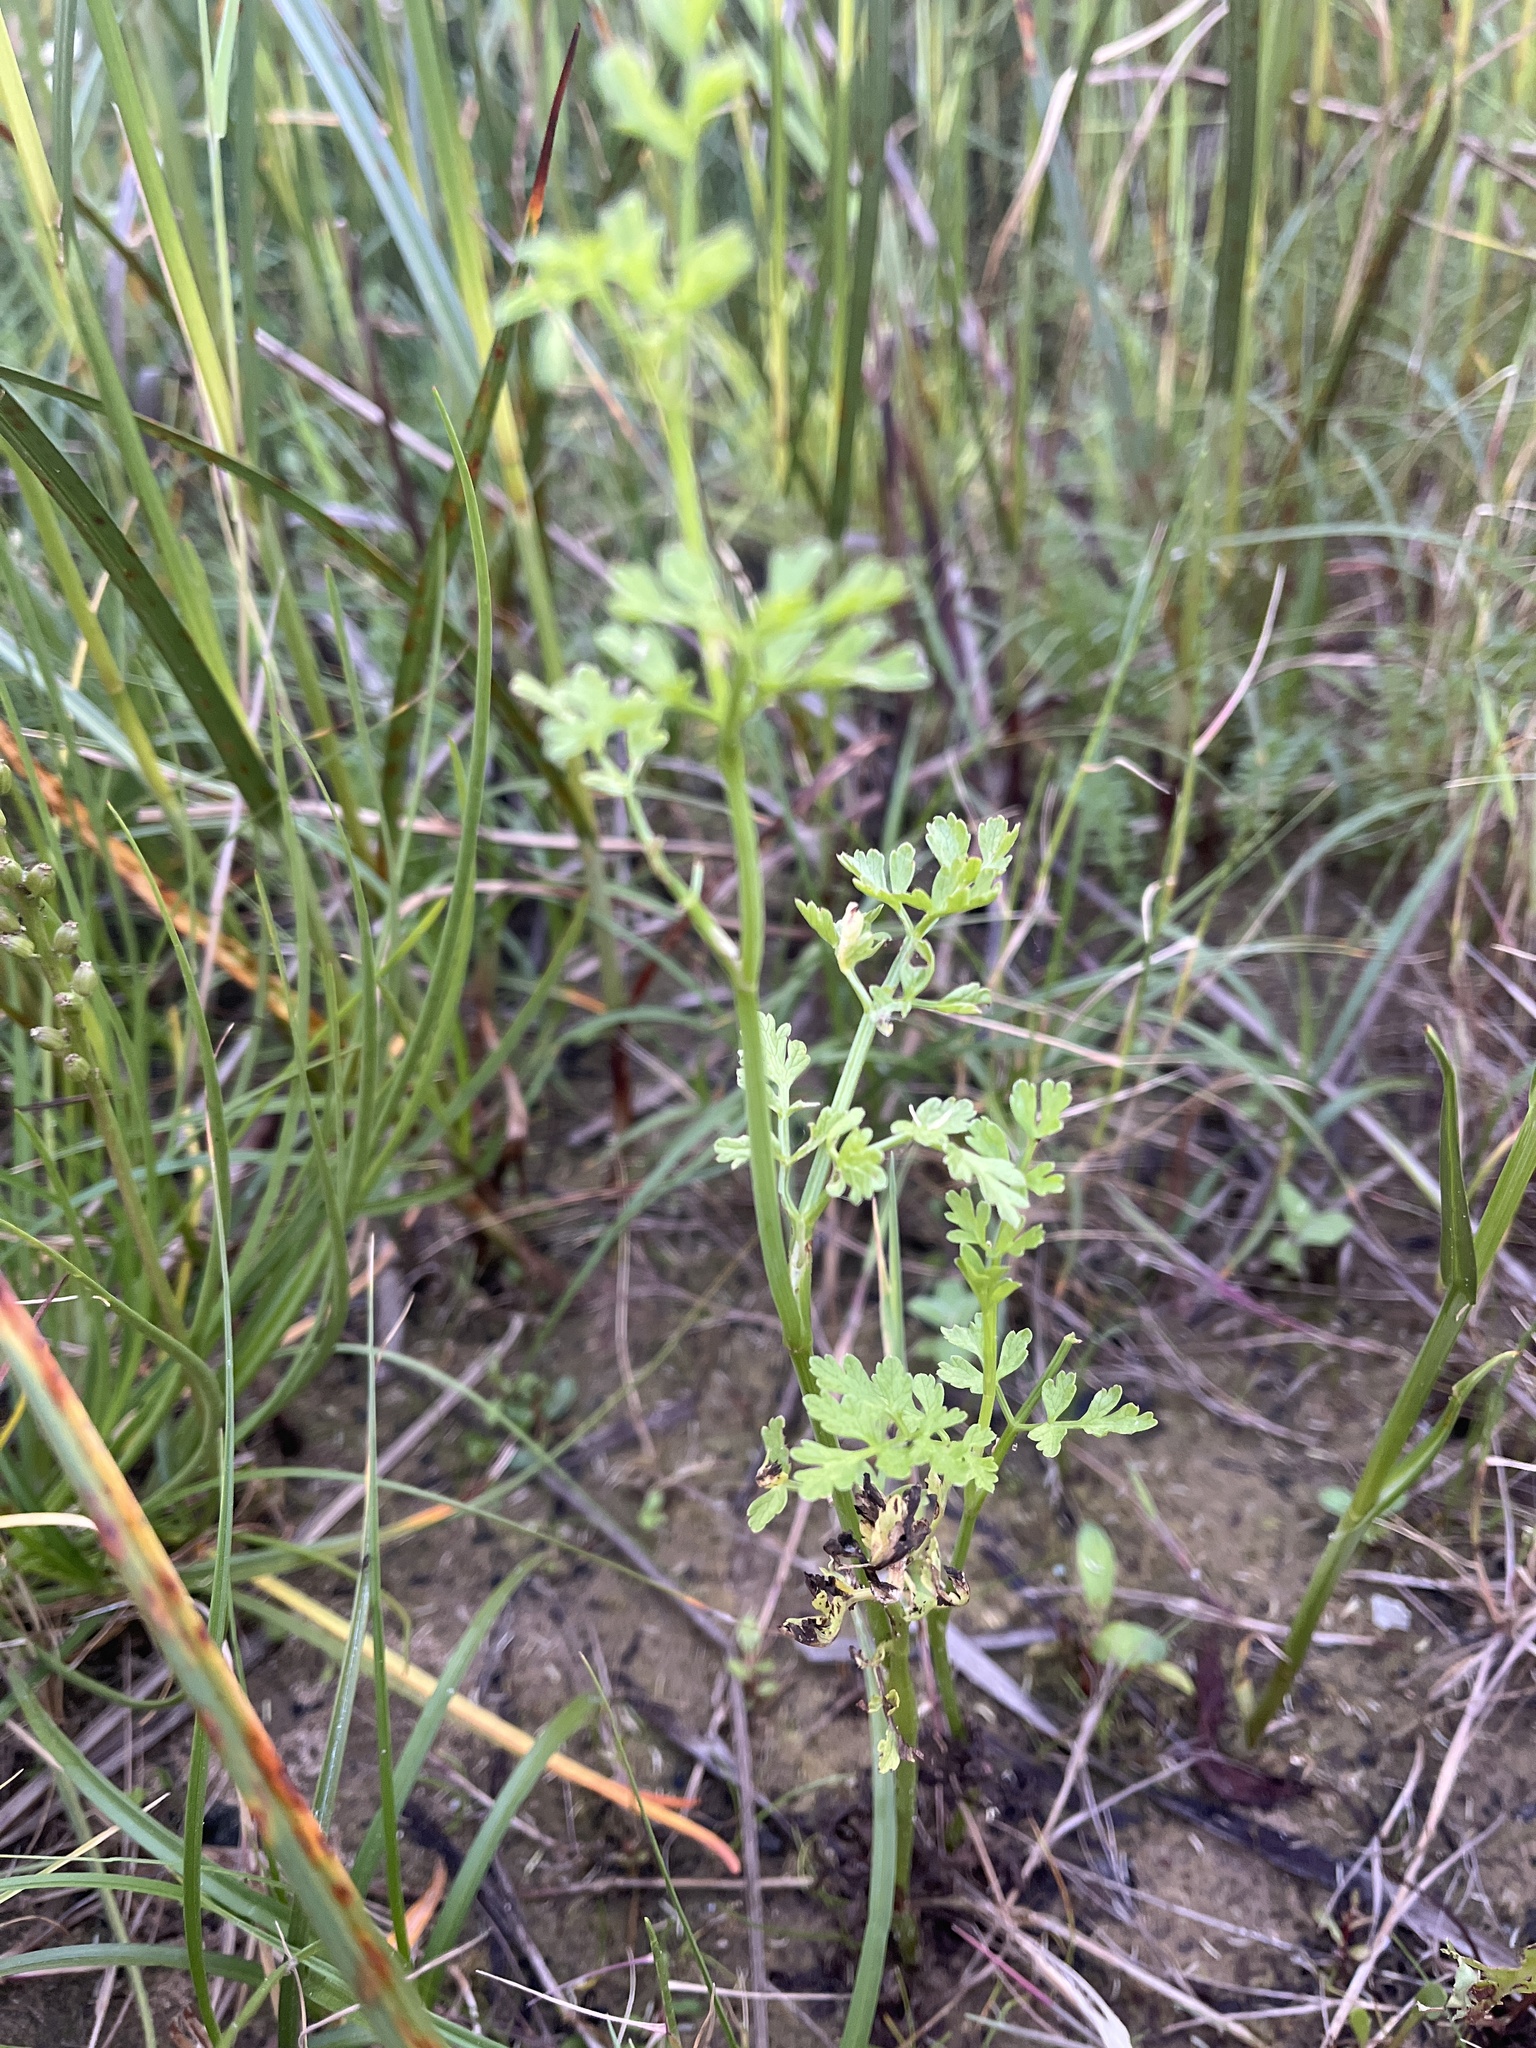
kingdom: Plantae
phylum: Tracheophyta
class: Magnoliopsida
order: Apiales
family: Apiaceae
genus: Oenanthe
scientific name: Oenanthe crocata
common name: Hemlock water-dropwort
